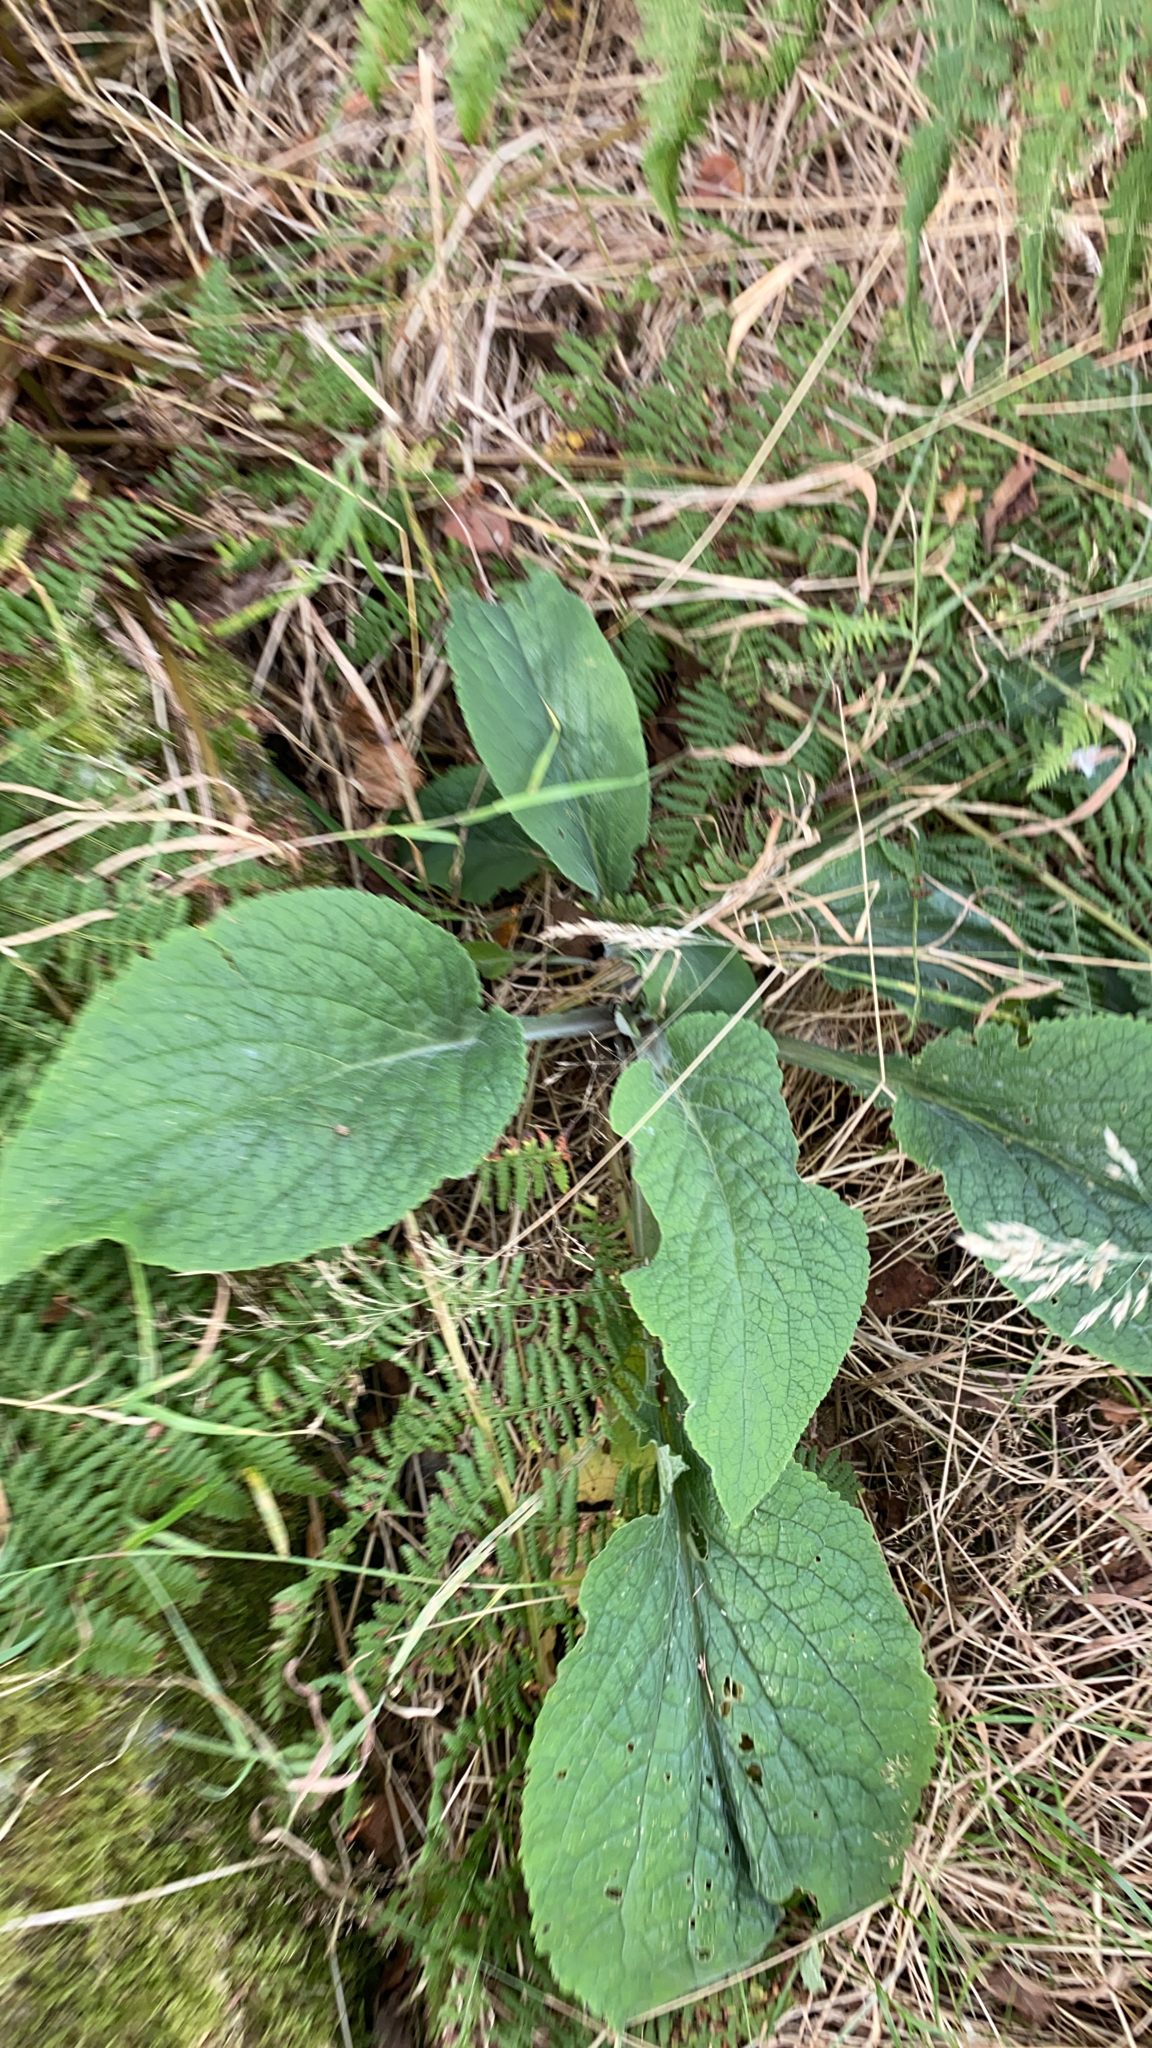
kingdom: Plantae
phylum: Tracheophyta
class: Magnoliopsida
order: Lamiales
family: Plantaginaceae
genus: Digitalis
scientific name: Digitalis purpurea
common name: Foxglove
